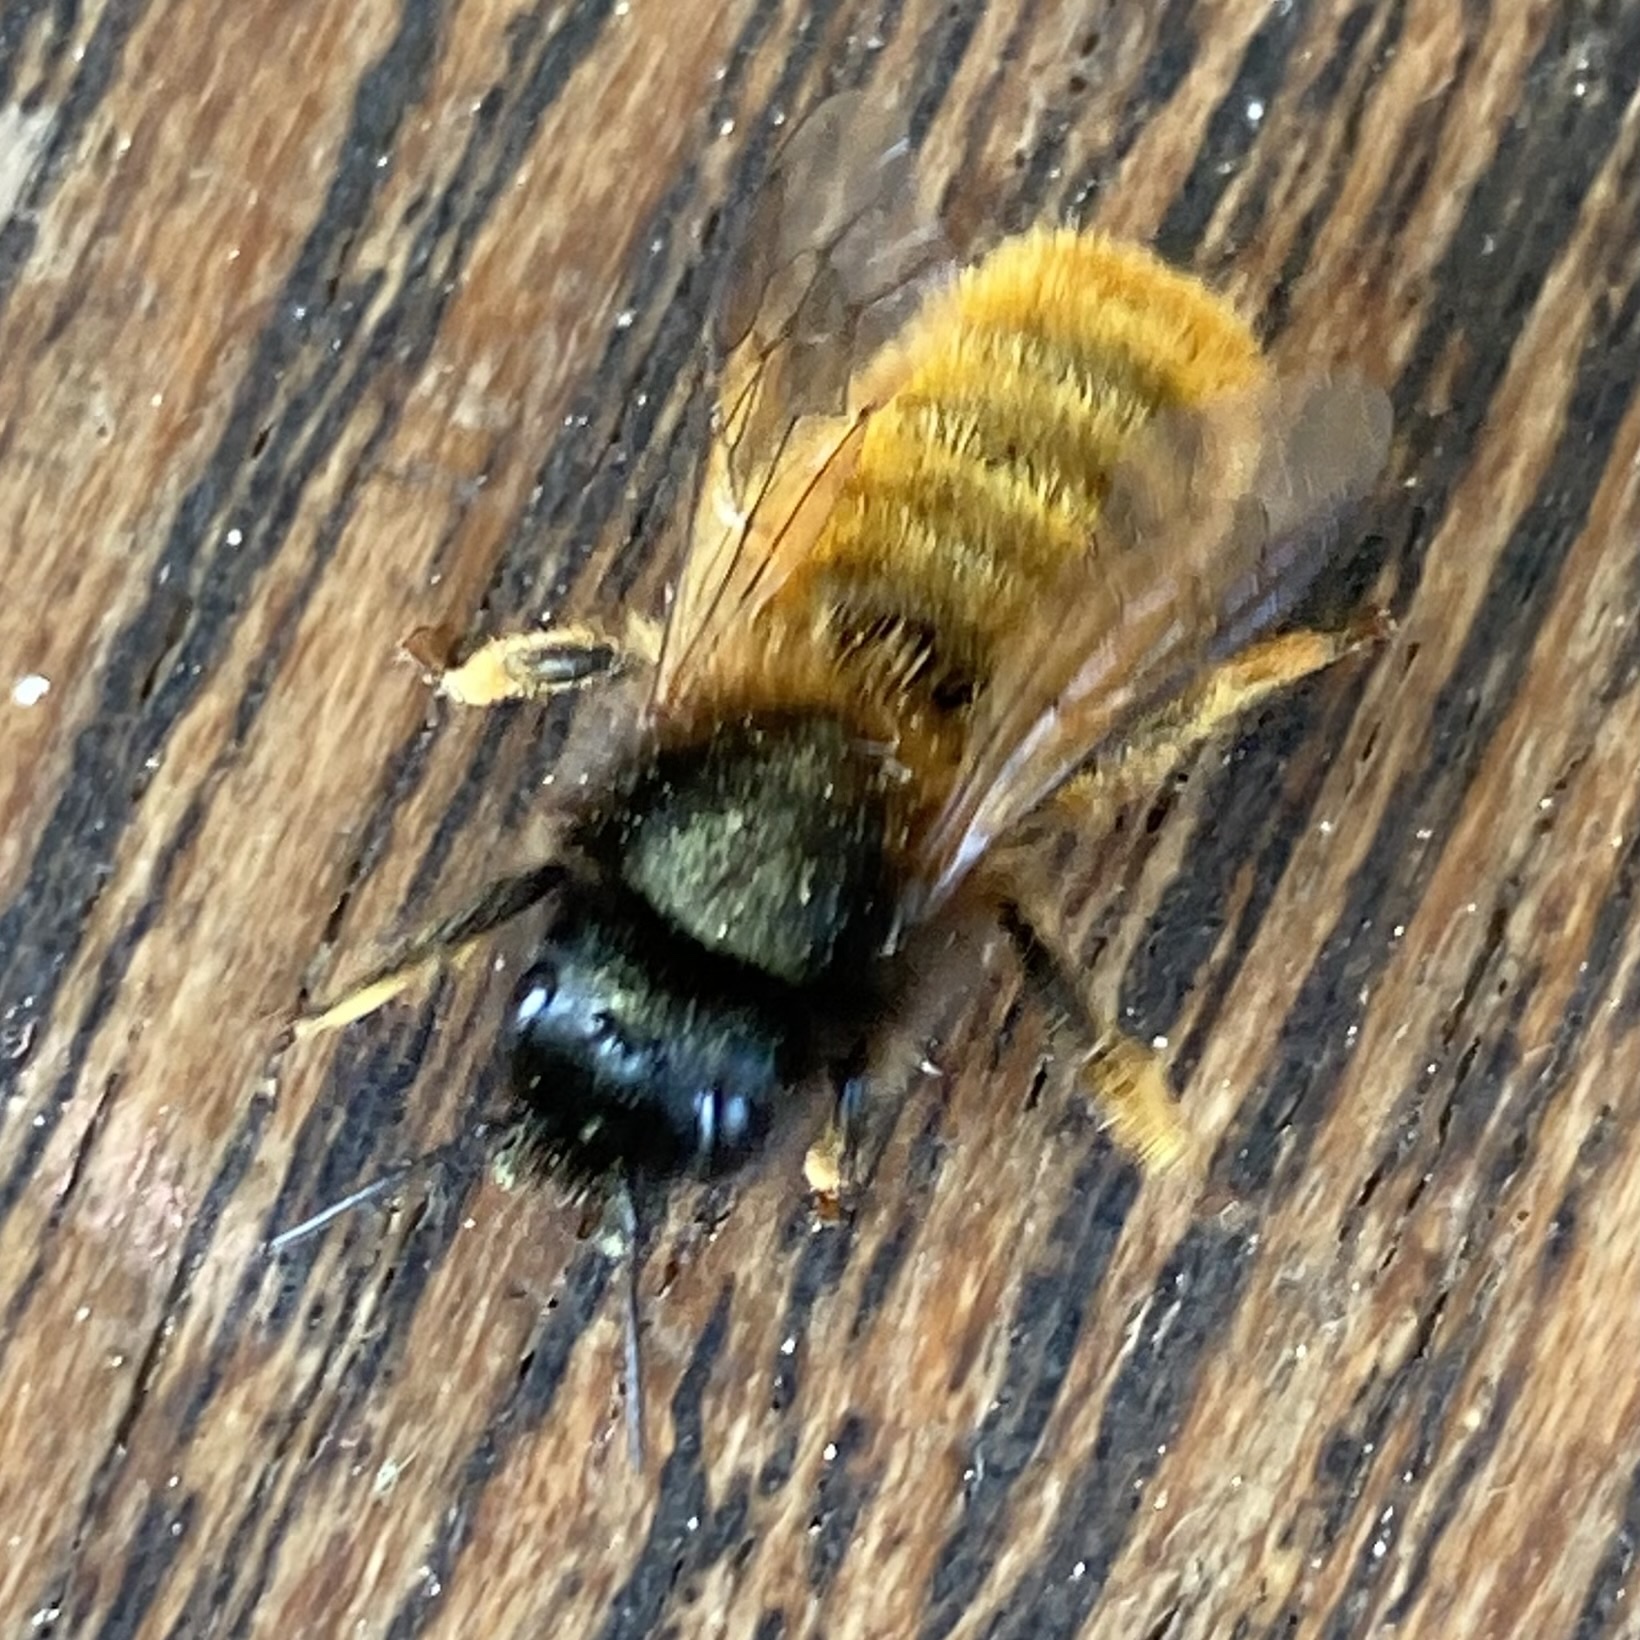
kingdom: Animalia
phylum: Arthropoda
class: Insecta
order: Hymenoptera
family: Megachilidae
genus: Osmia
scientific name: Osmia bicornis
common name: Red mason bee
